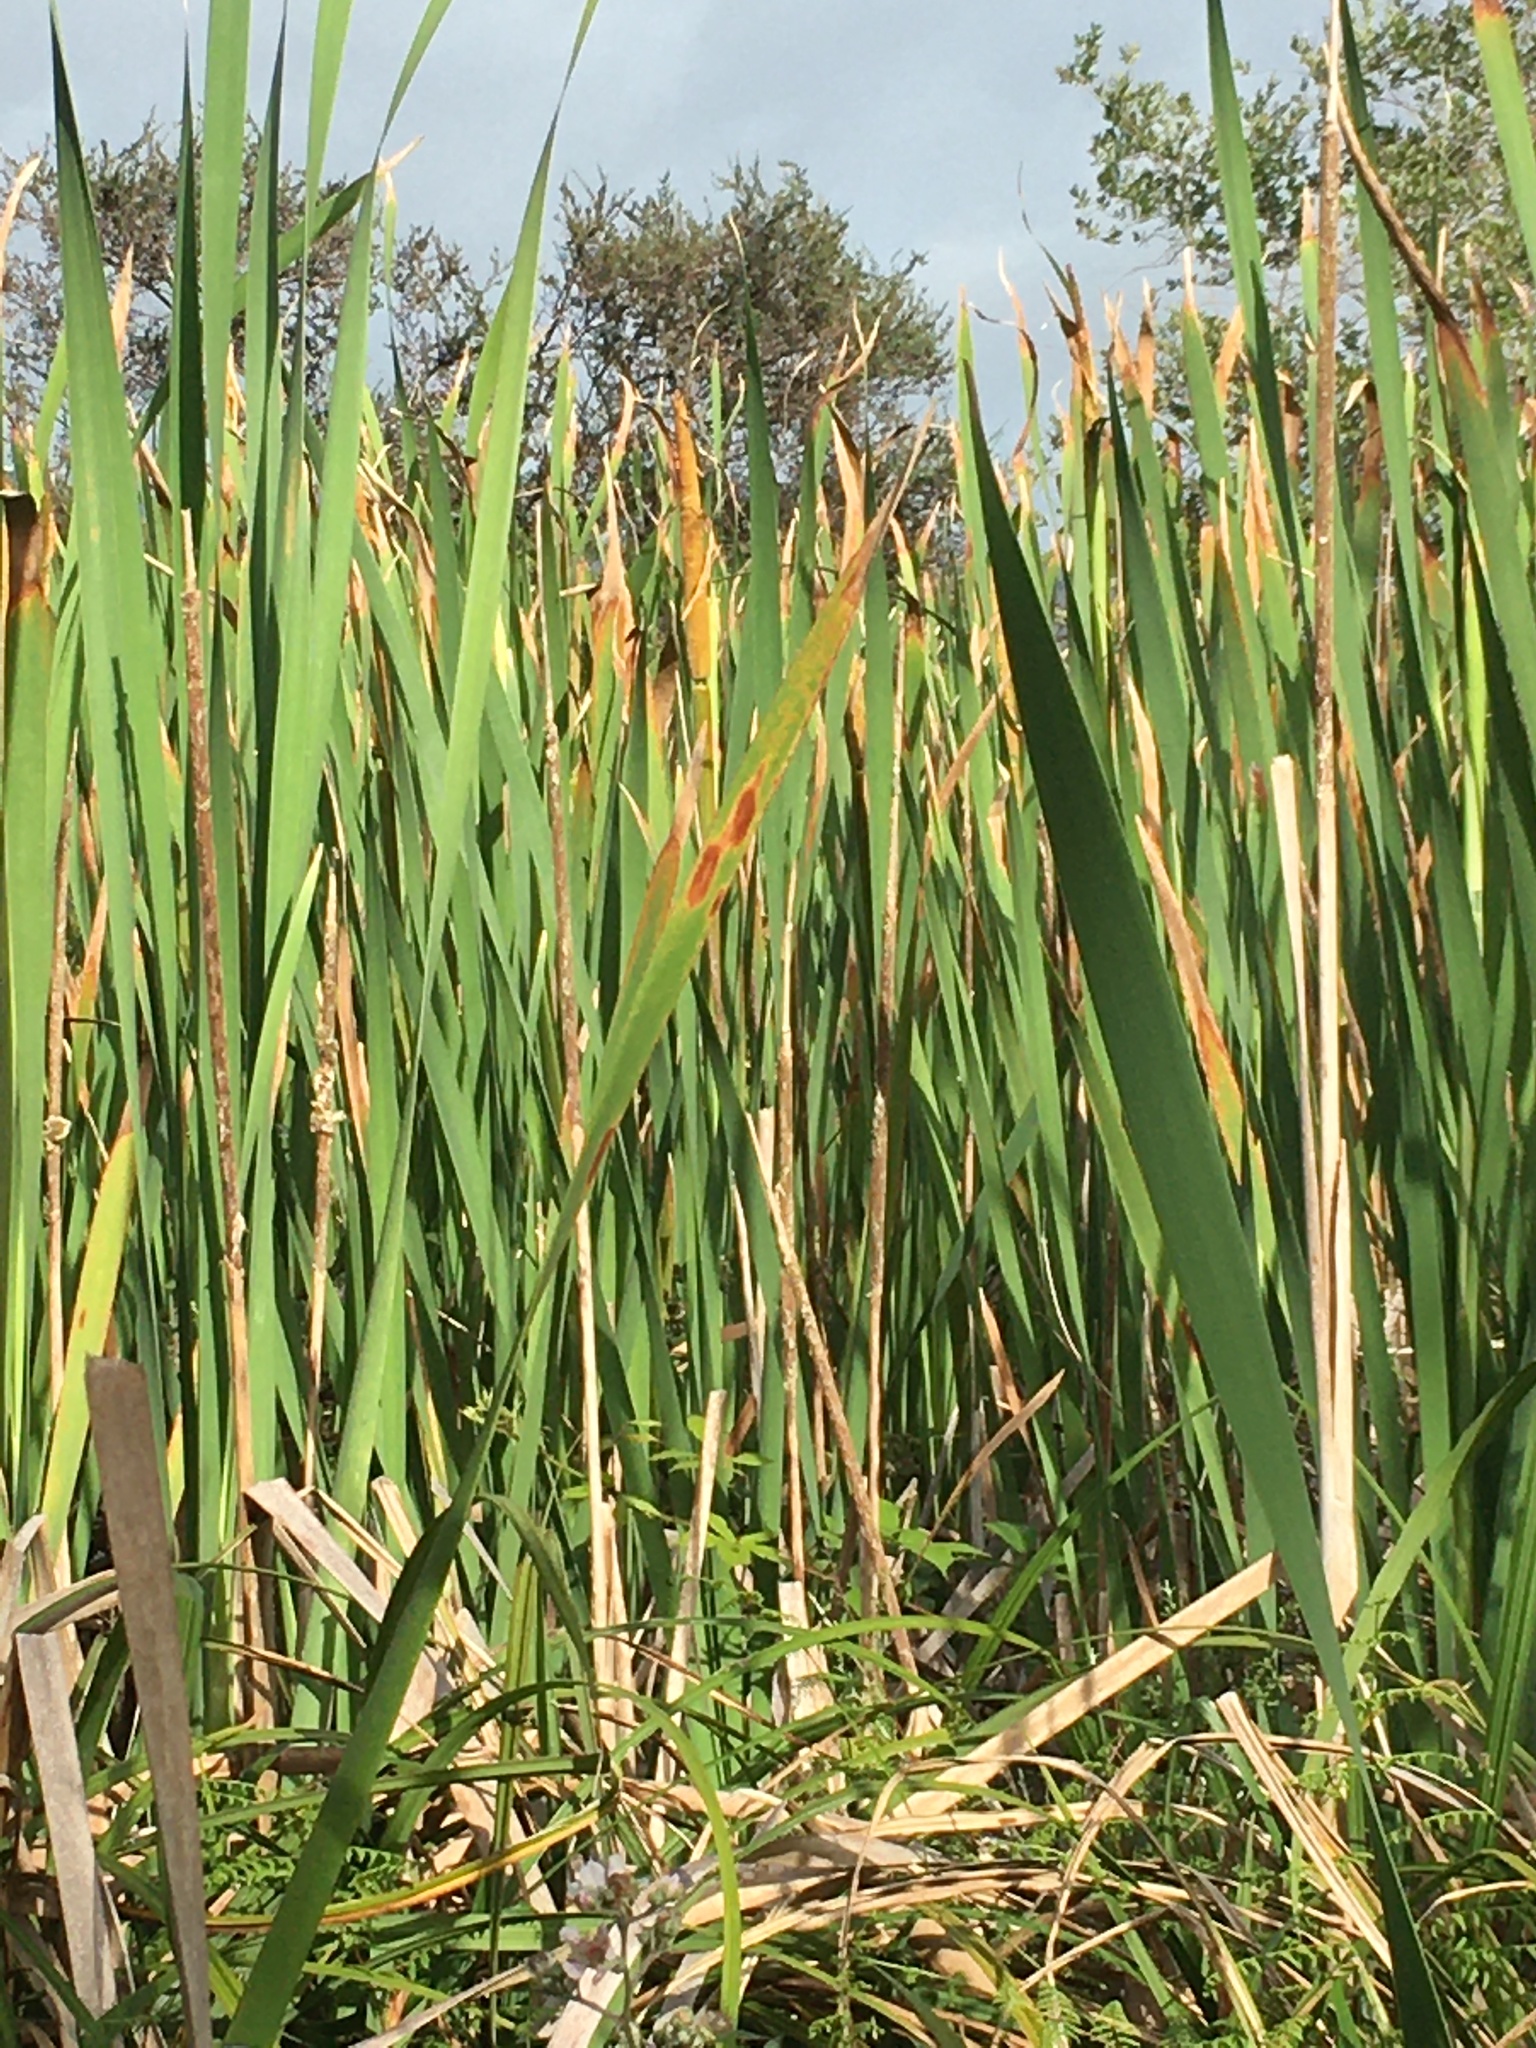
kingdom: Plantae
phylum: Tracheophyta
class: Liliopsida
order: Poales
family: Typhaceae
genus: Typha
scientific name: Typha orientalis
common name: Bullrush
